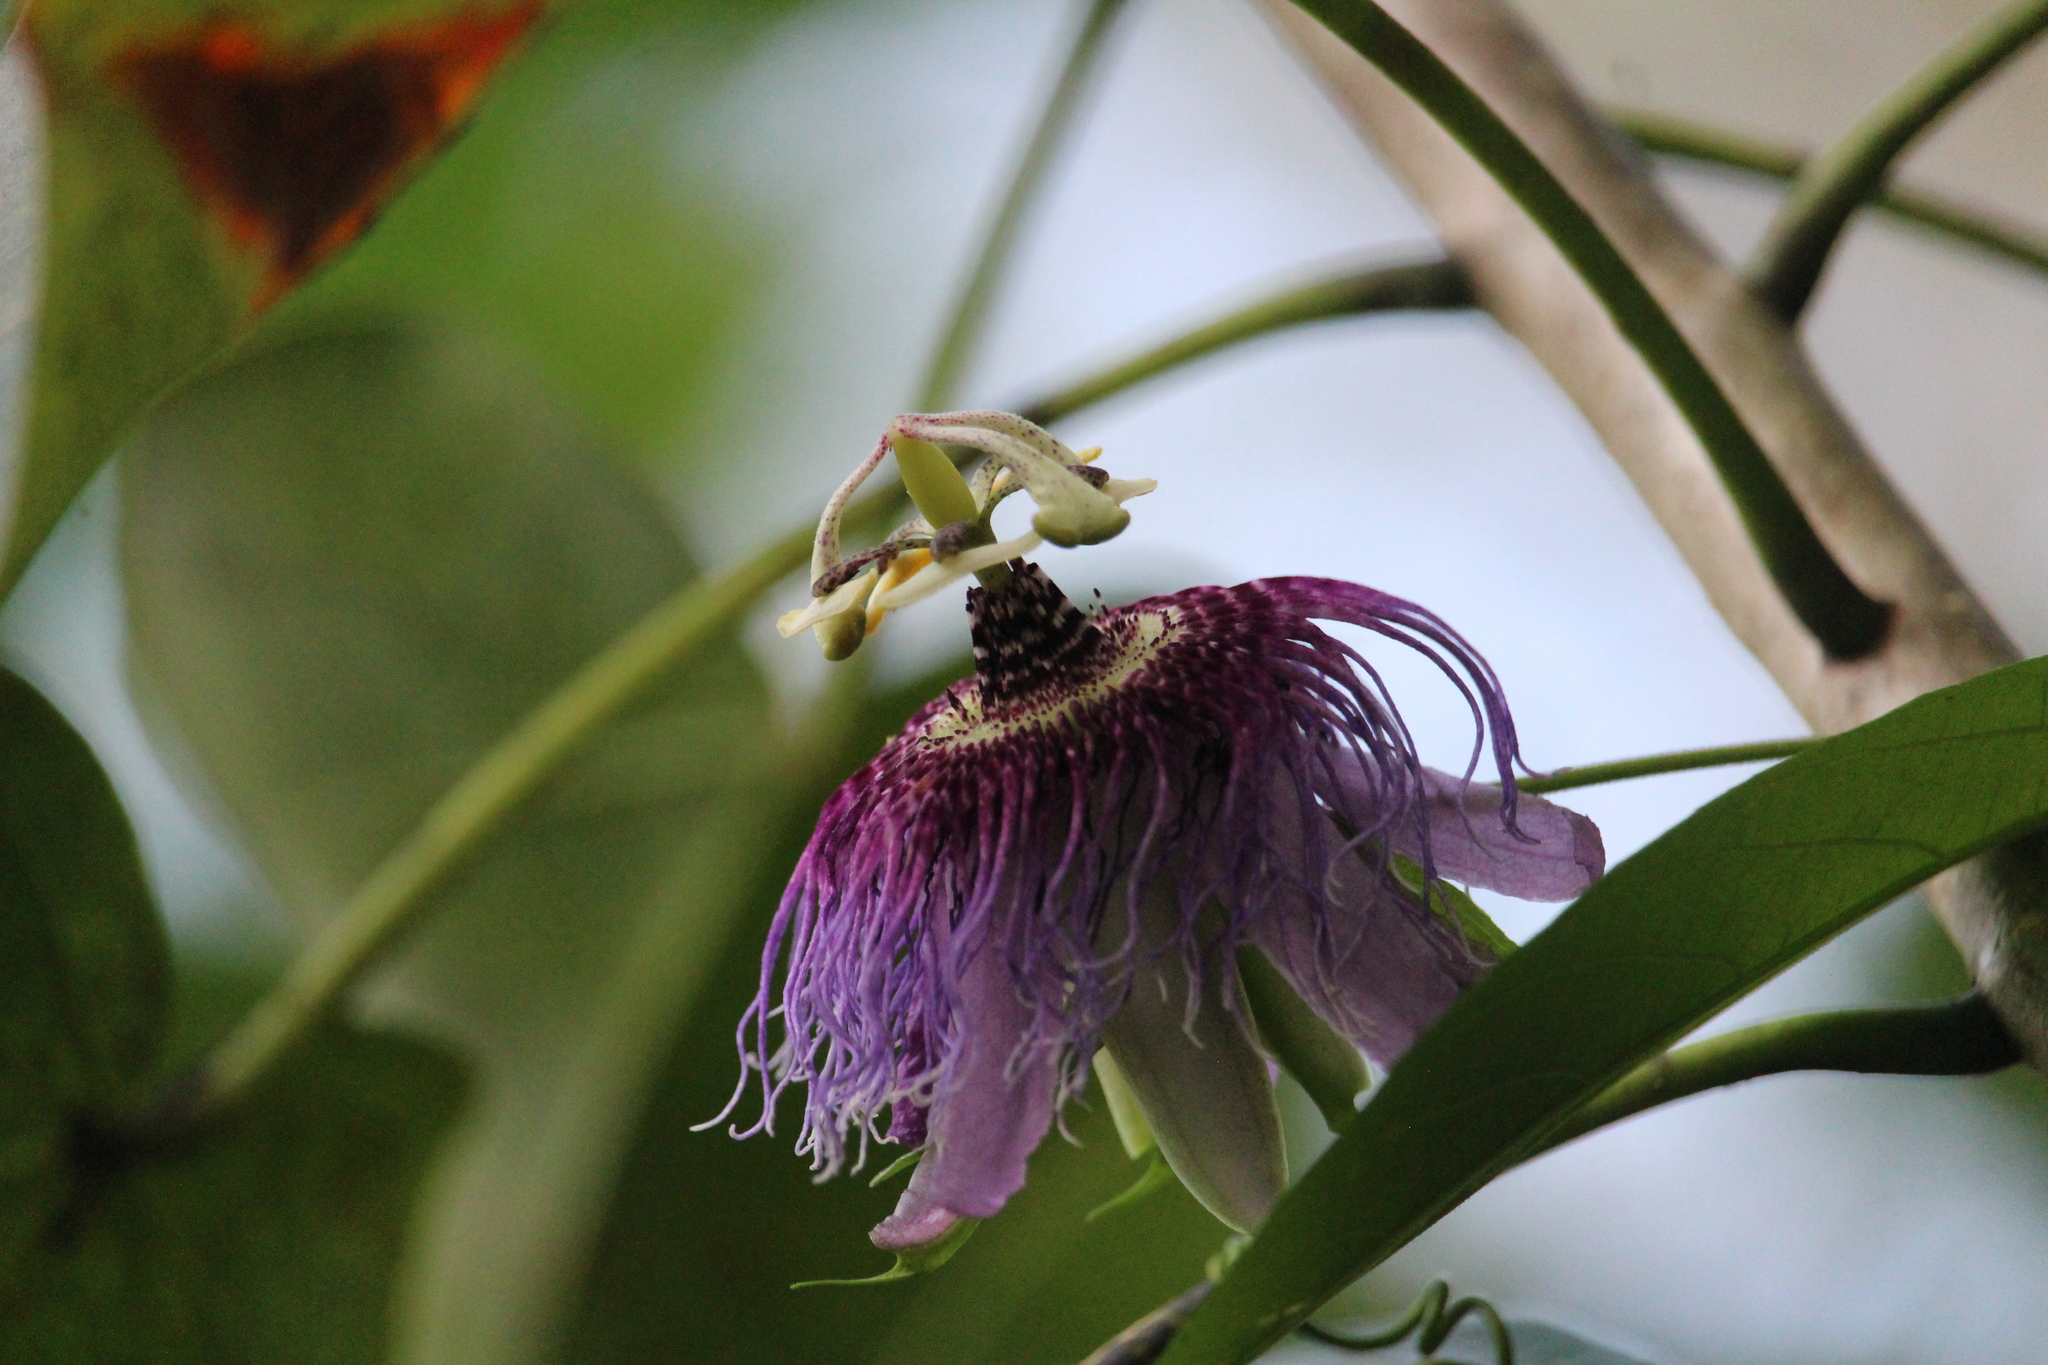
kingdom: Plantae
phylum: Tracheophyta
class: Magnoliopsida
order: Malpighiales
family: Passifloraceae
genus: Passiflora
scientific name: Passiflora serratifolia
